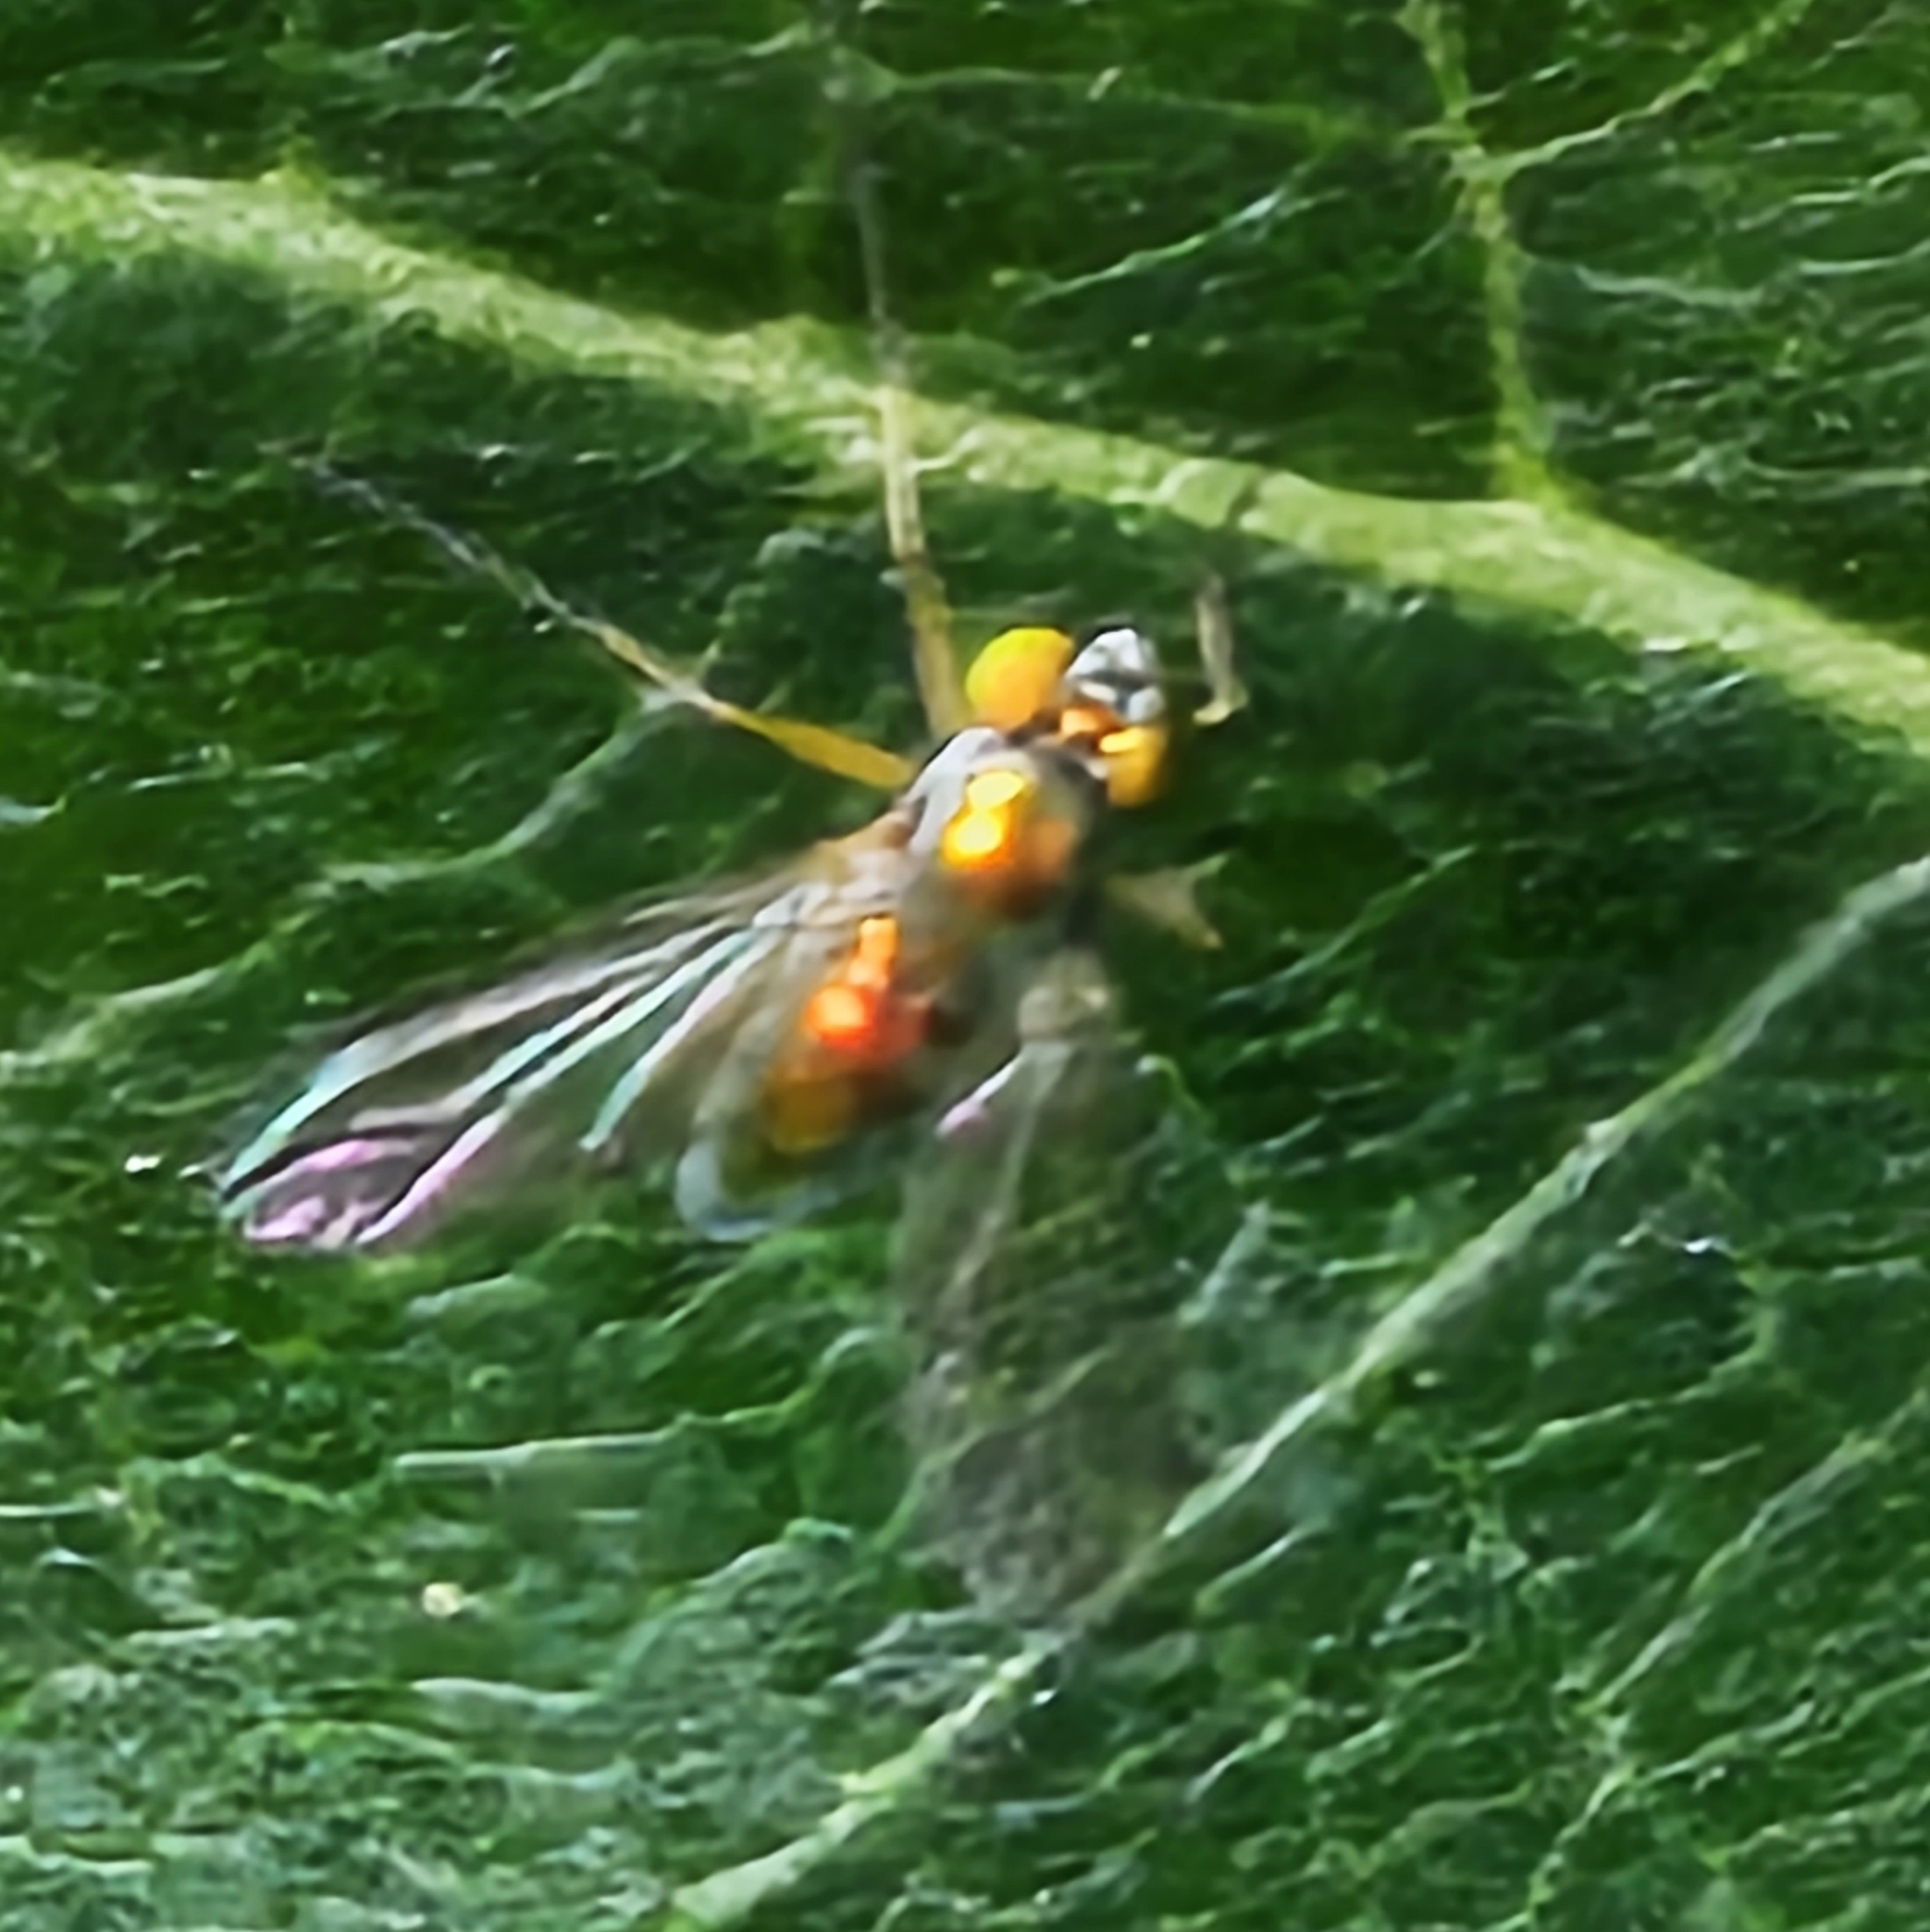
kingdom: Animalia
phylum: Arthropoda
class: Insecta
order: Diptera
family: Dolichopodidae
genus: Amblypsilopus
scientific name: Amblypsilopus scintillans
